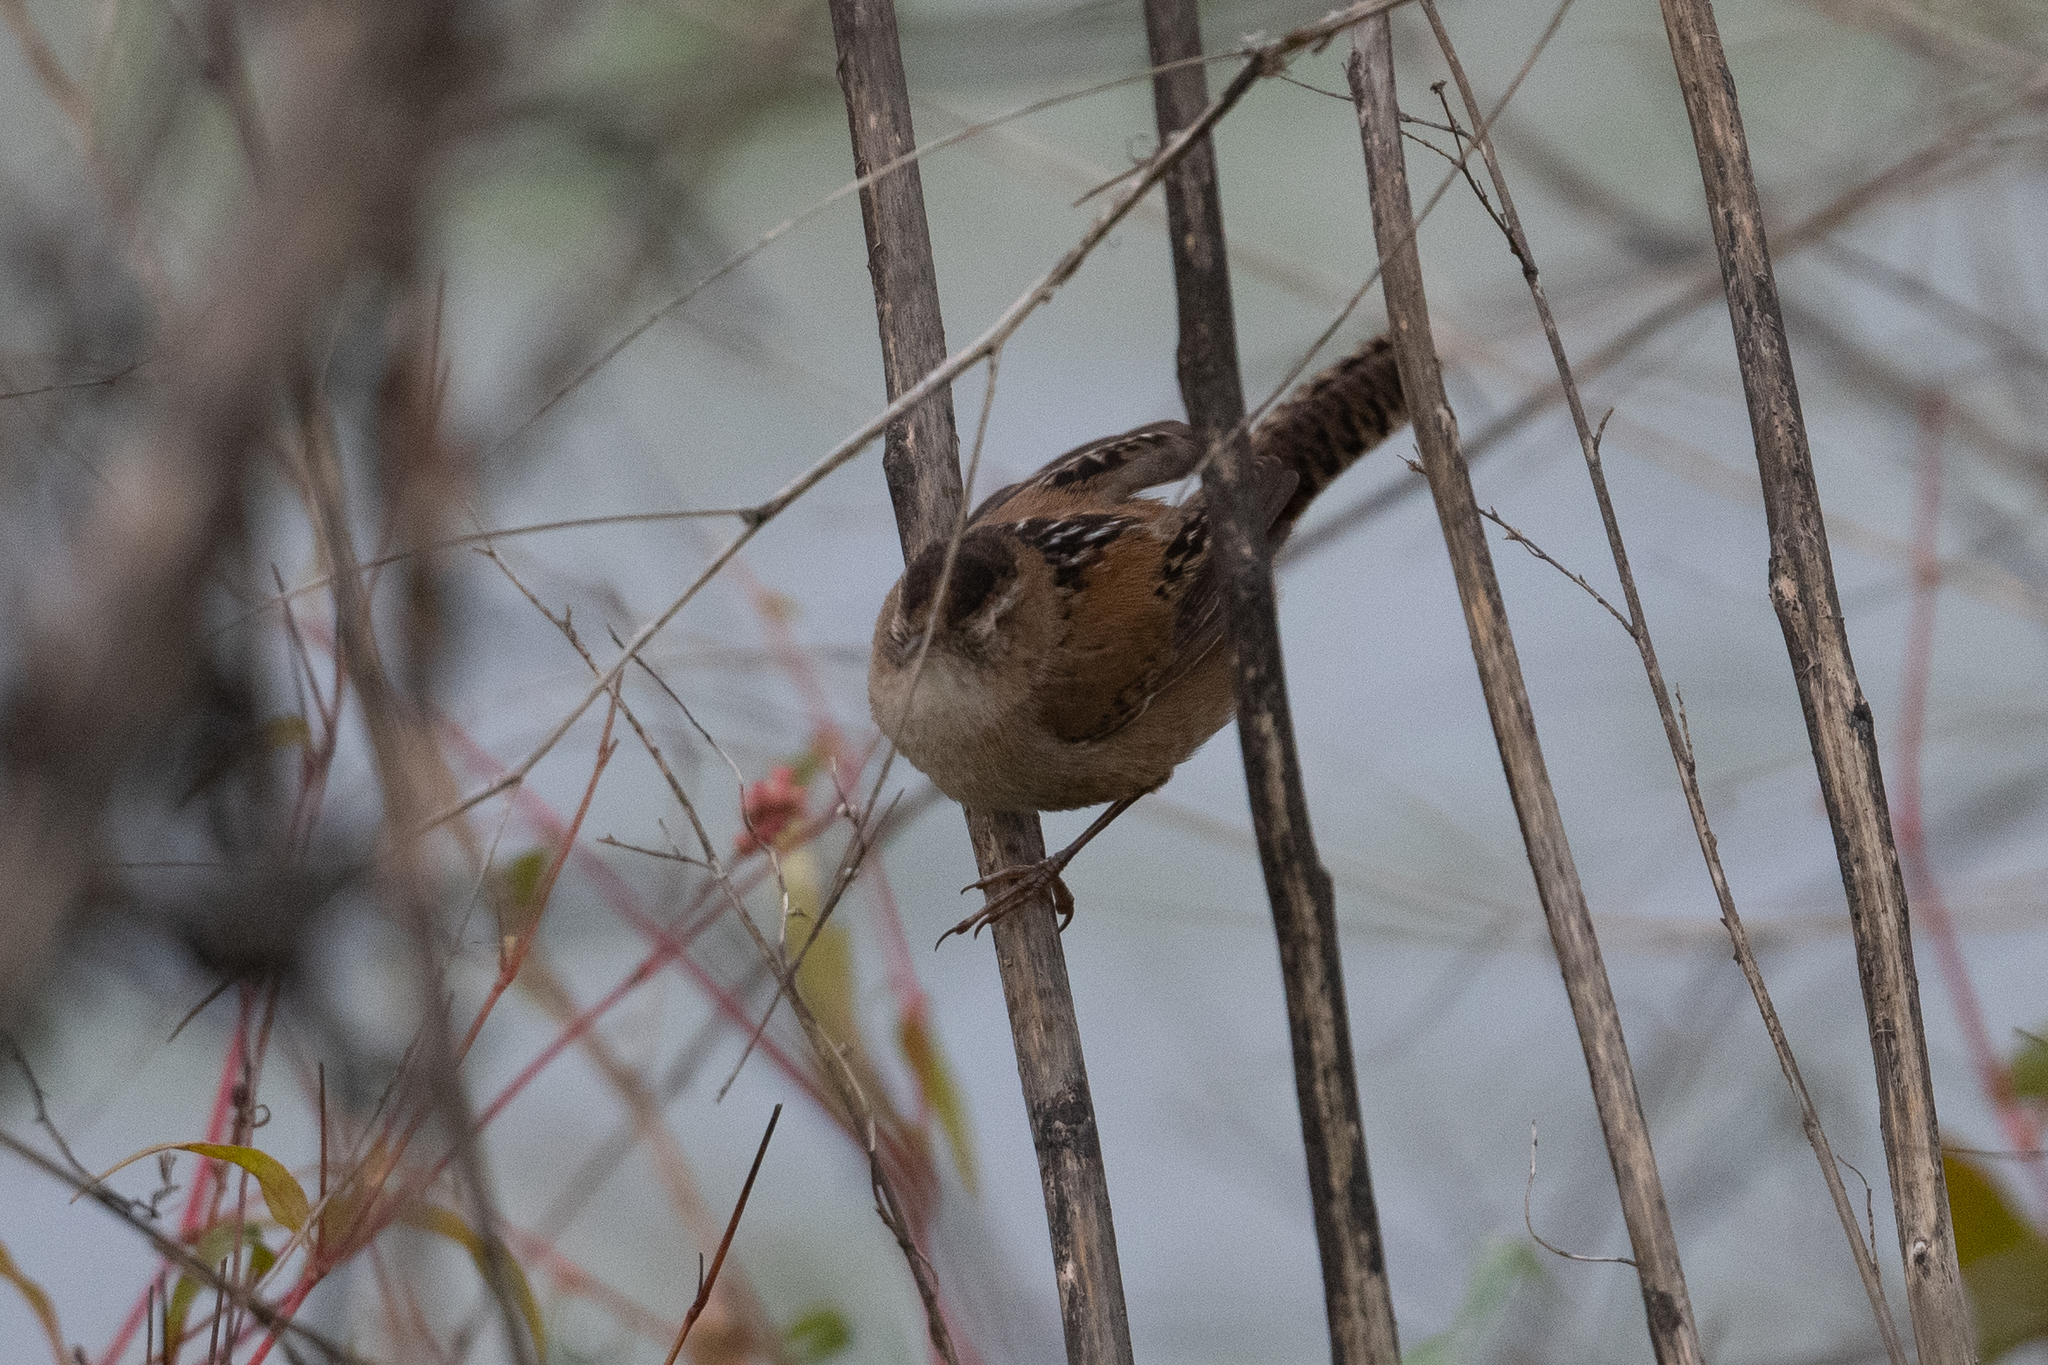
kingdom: Animalia
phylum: Chordata
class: Aves
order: Passeriformes
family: Troglodytidae
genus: Cistothorus
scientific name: Cistothorus palustris
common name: Marsh wren
